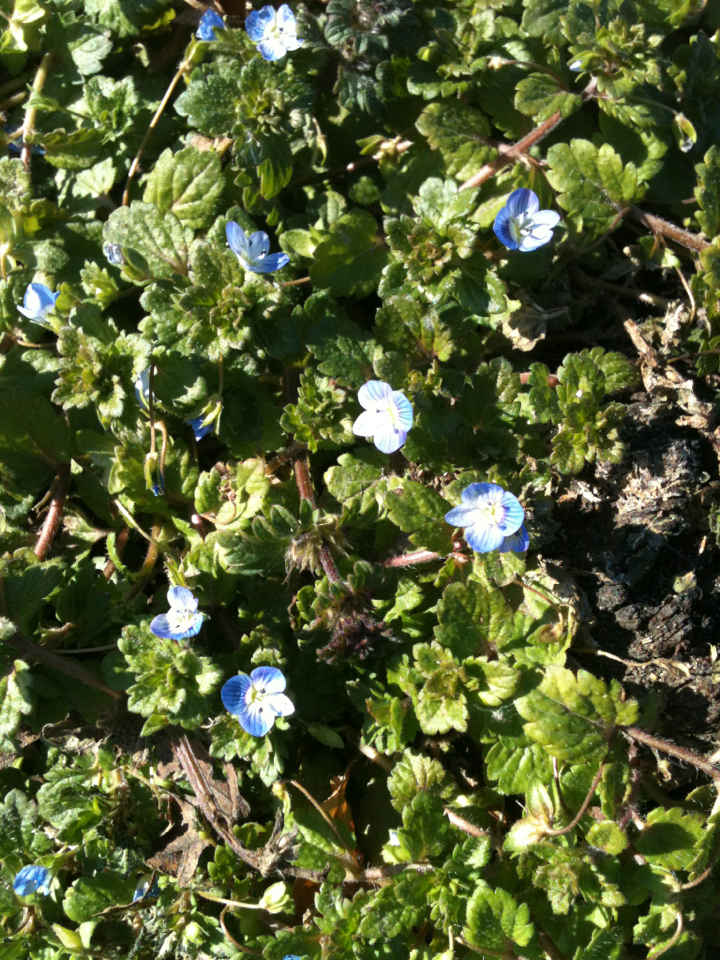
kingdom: Plantae
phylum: Tracheophyta
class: Magnoliopsida
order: Lamiales
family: Plantaginaceae
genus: Veronica
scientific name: Veronica persica
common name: Common field-speedwell
